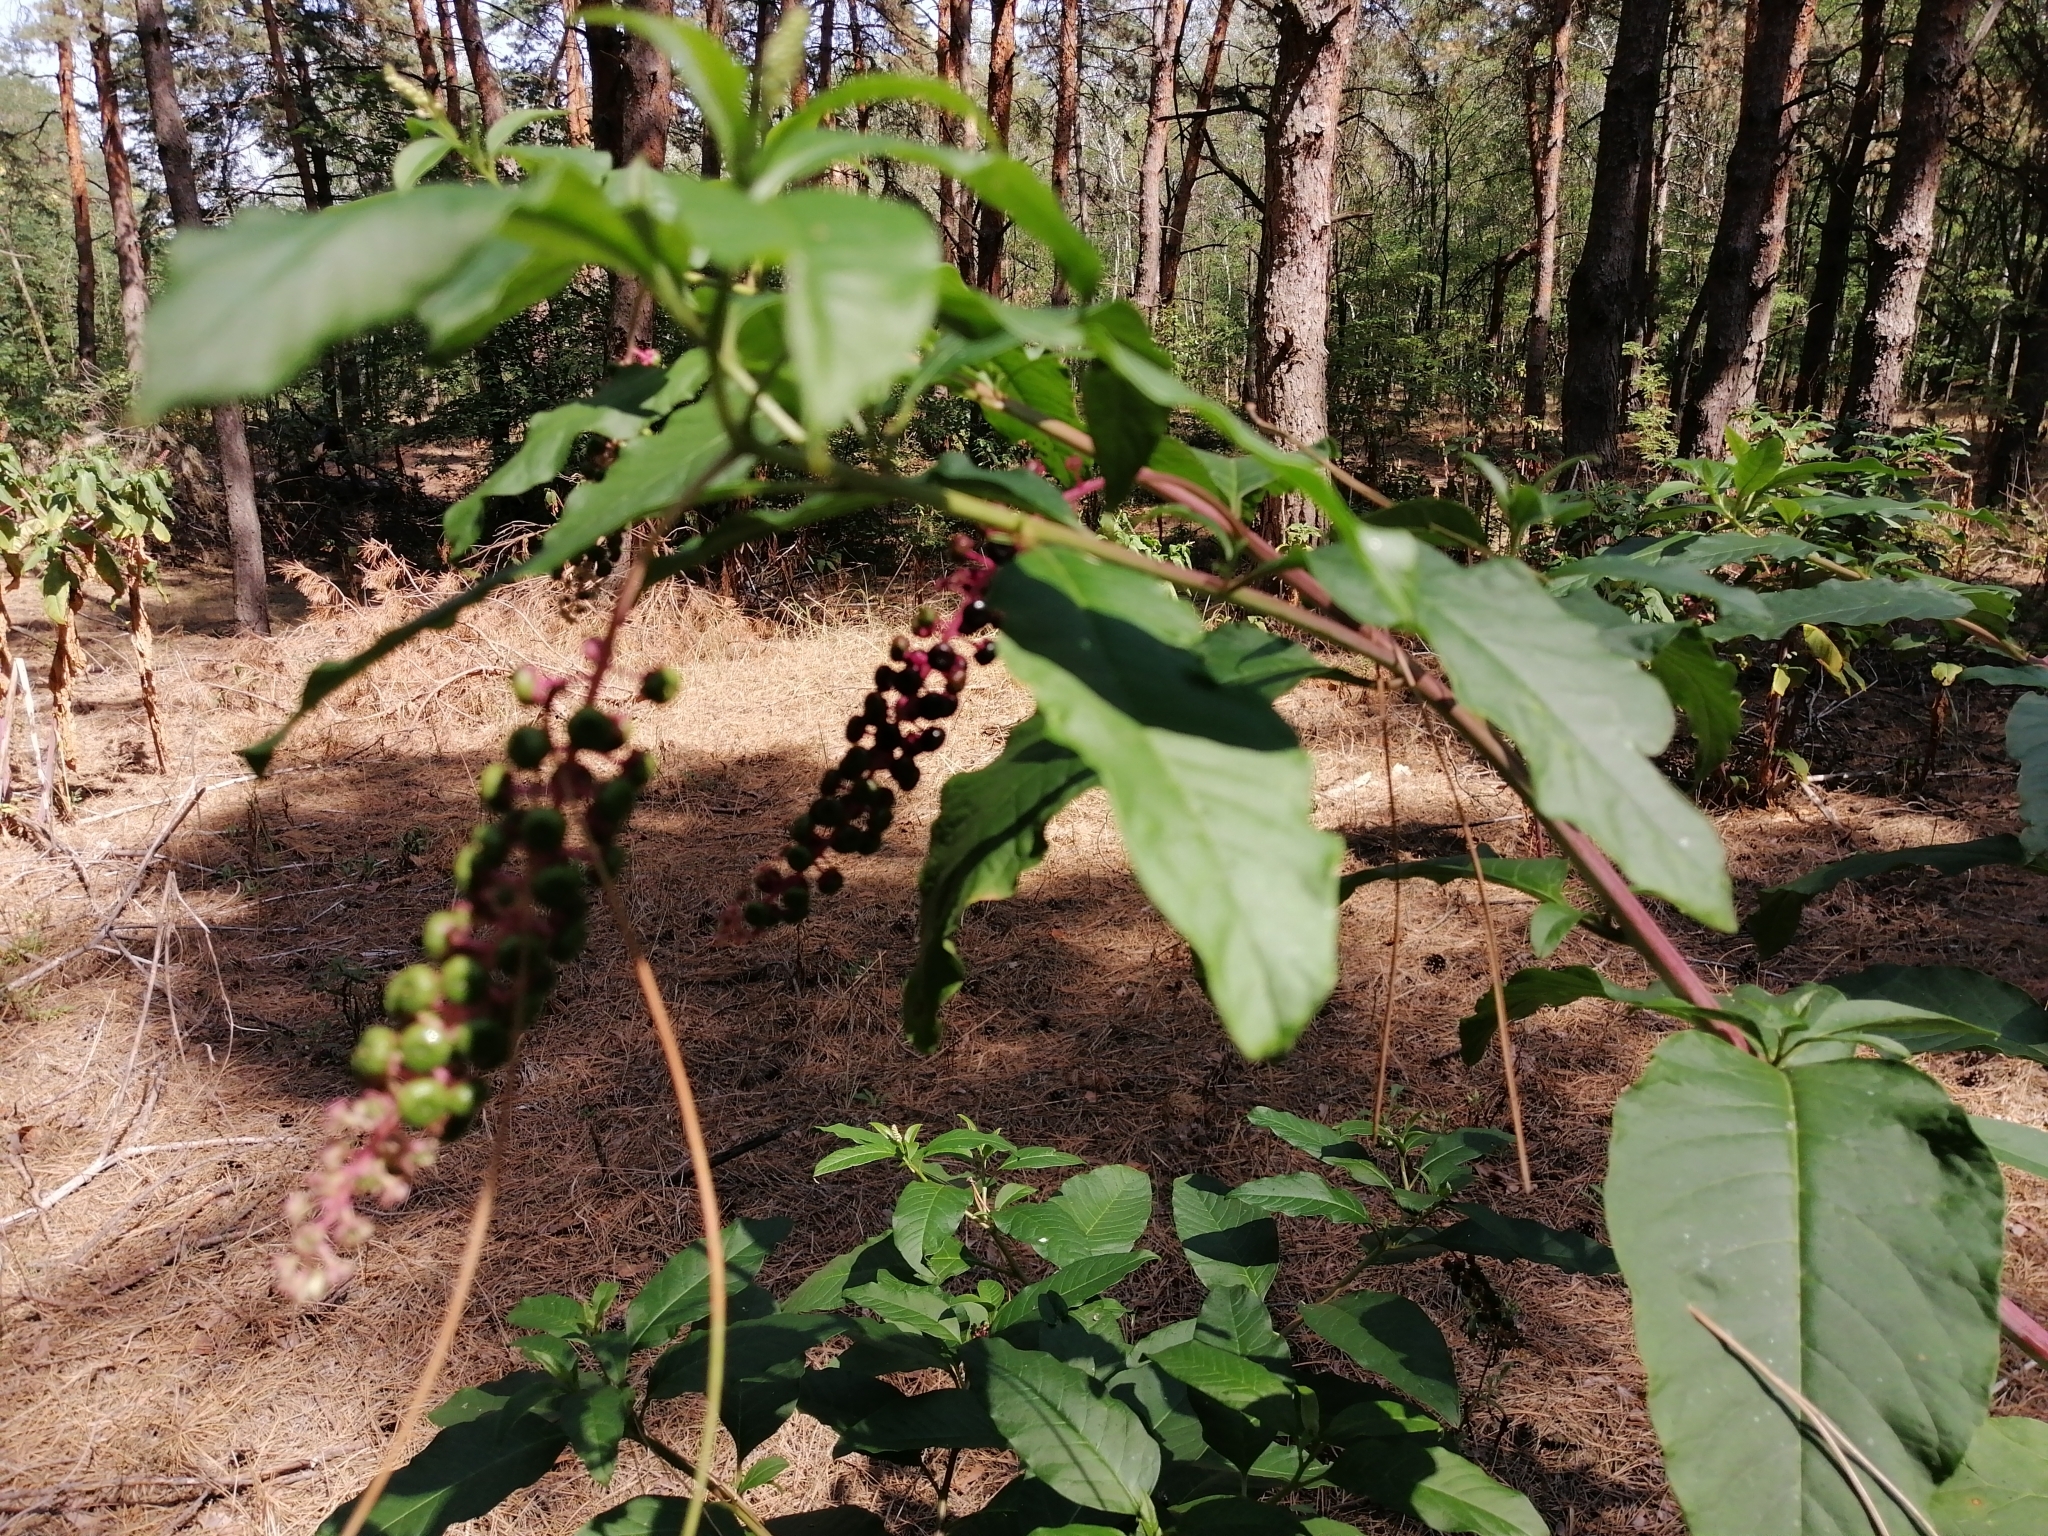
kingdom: Plantae
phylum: Tracheophyta
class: Magnoliopsida
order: Caryophyllales
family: Phytolaccaceae
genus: Phytolacca
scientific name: Phytolacca americana
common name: American pokeweed
